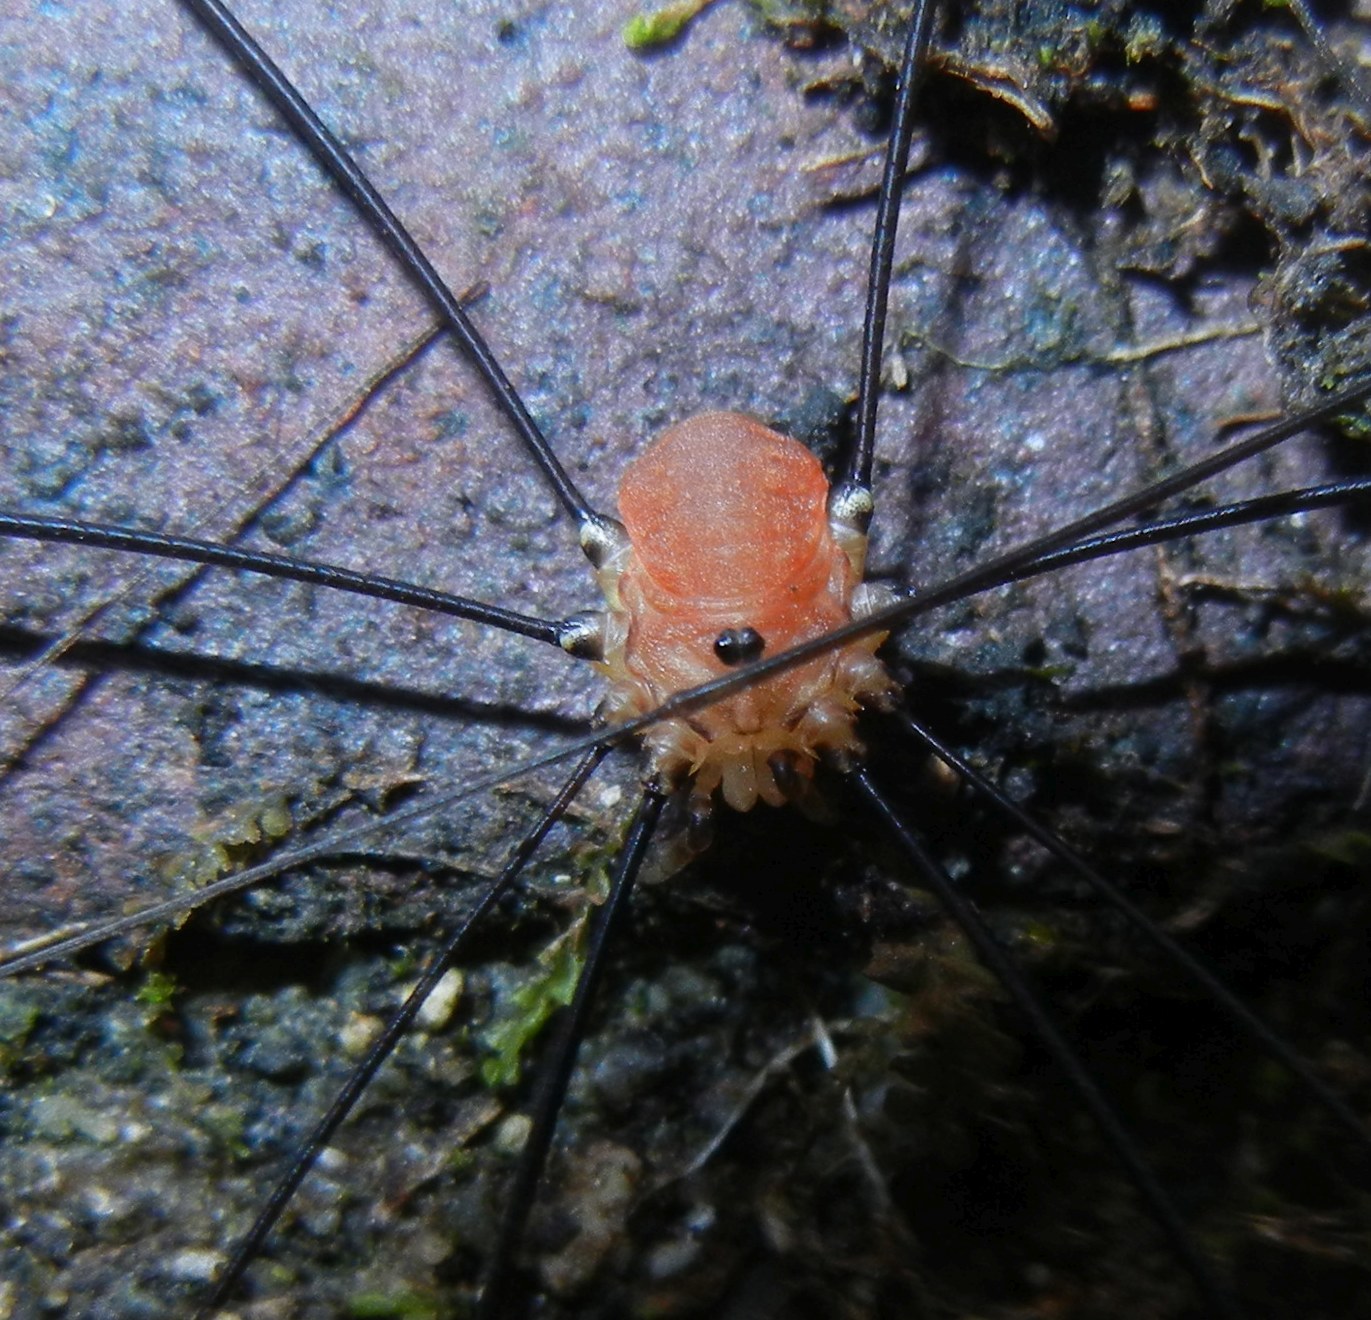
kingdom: Animalia
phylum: Arthropoda
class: Arachnida
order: Opiliones
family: Sclerosomatidae
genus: Leiobunum
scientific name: Leiobunum rotundum
